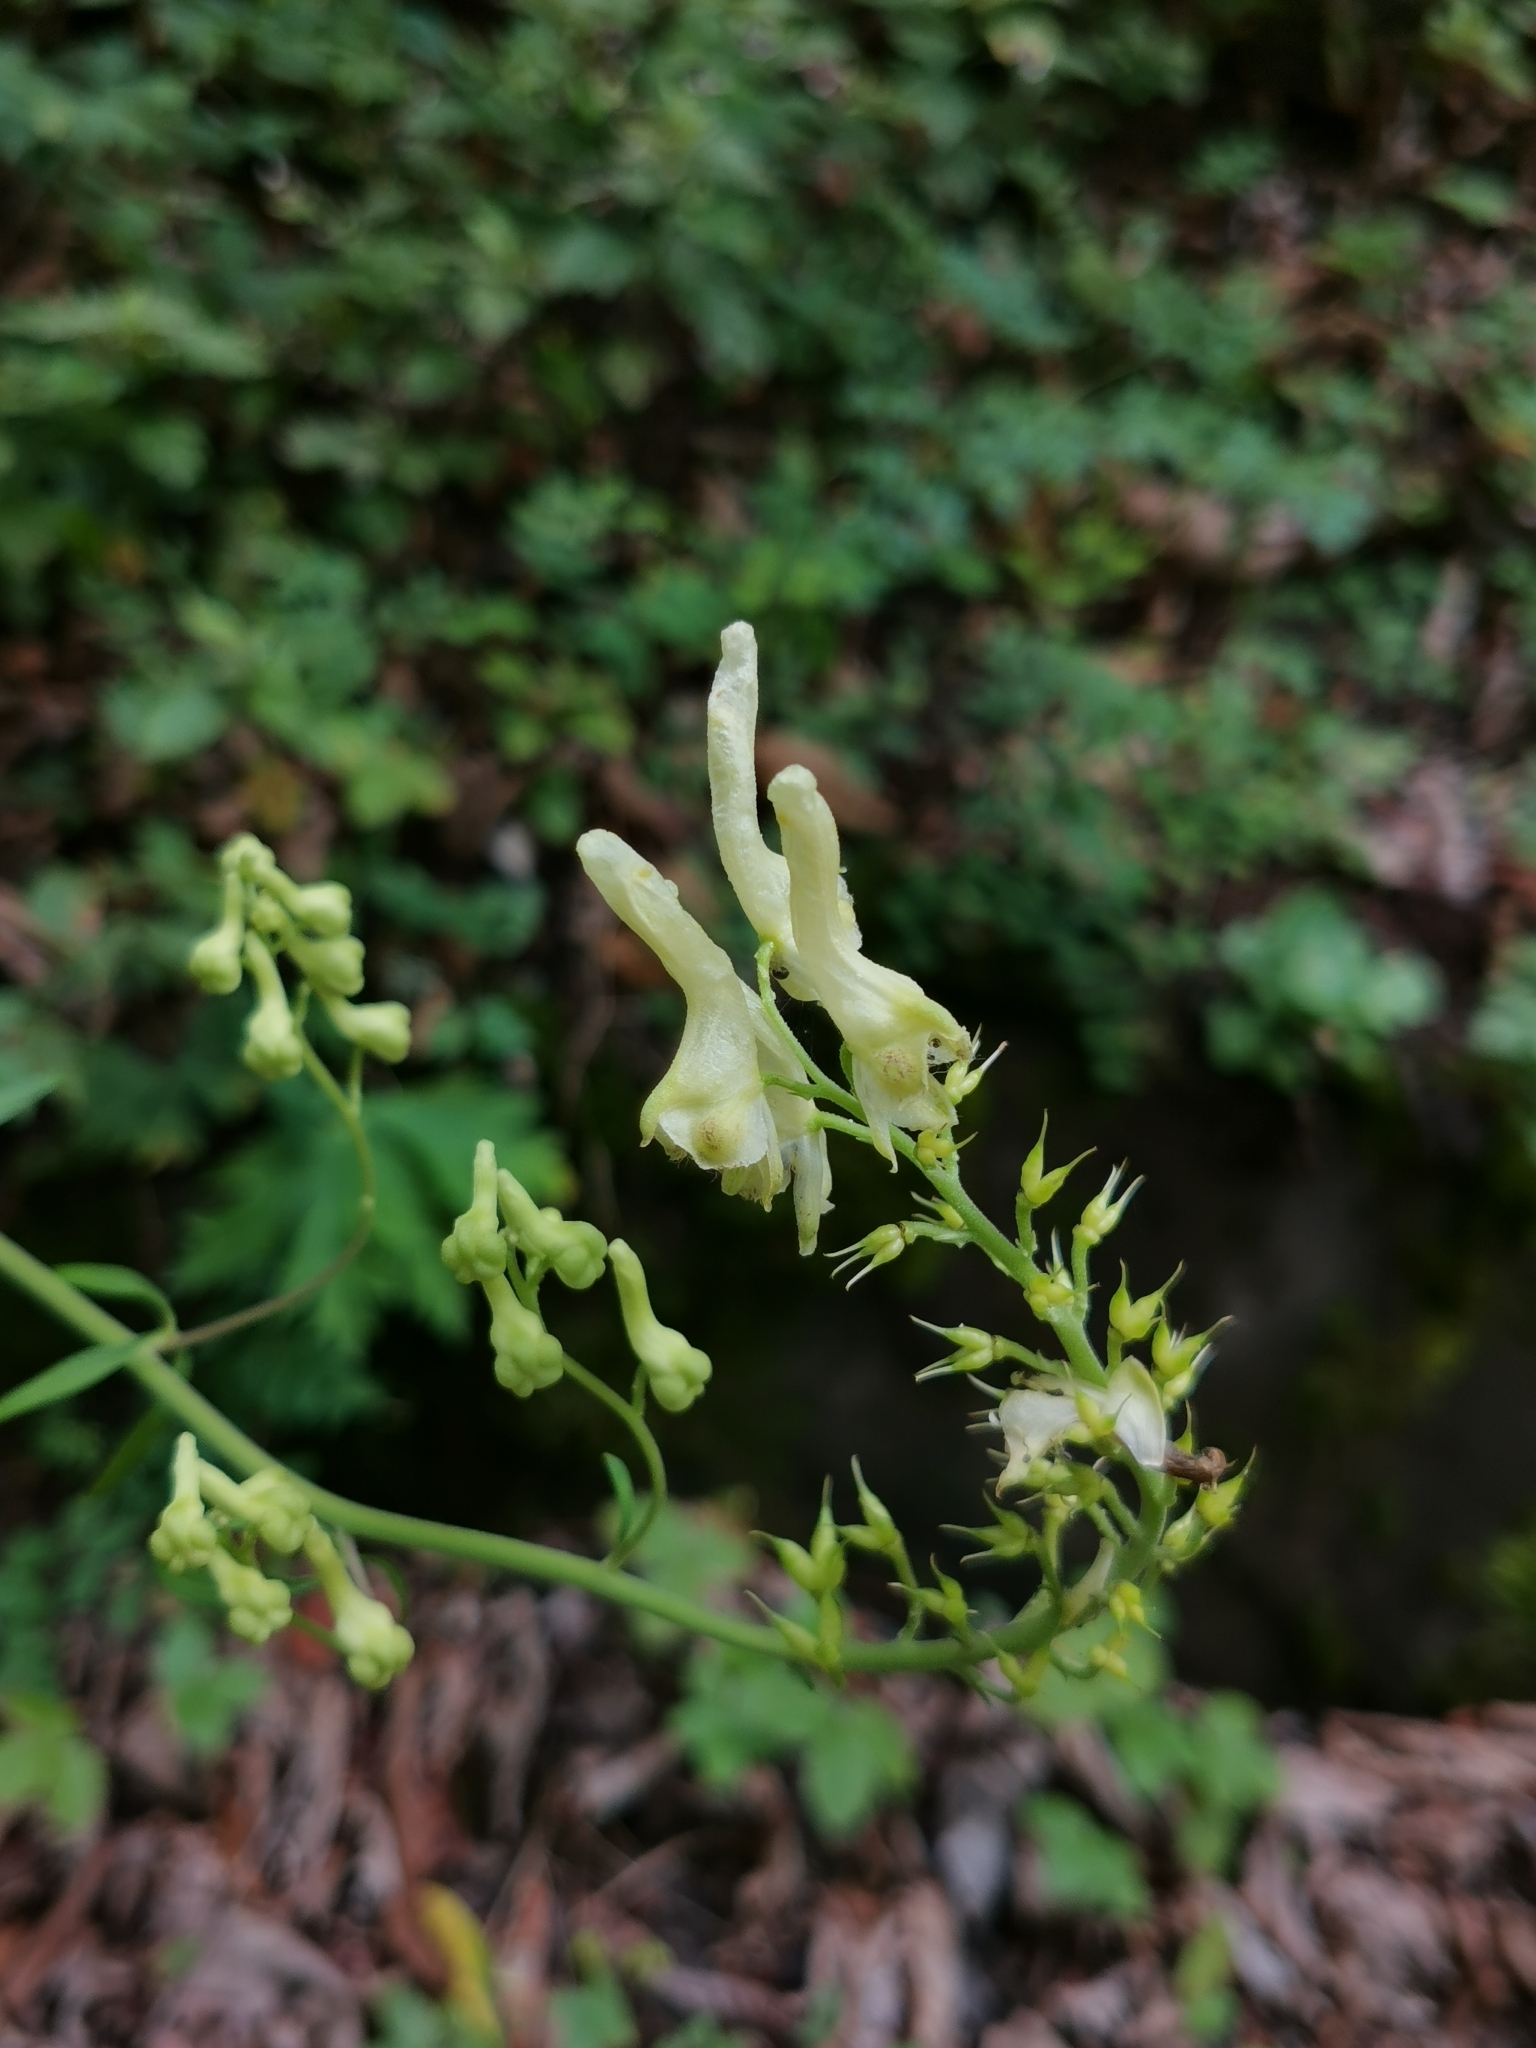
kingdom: Plantae
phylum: Tracheophyta
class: Magnoliopsida
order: Ranunculales
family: Ranunculaceae
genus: Aconitum
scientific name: Aconitum kirinense
